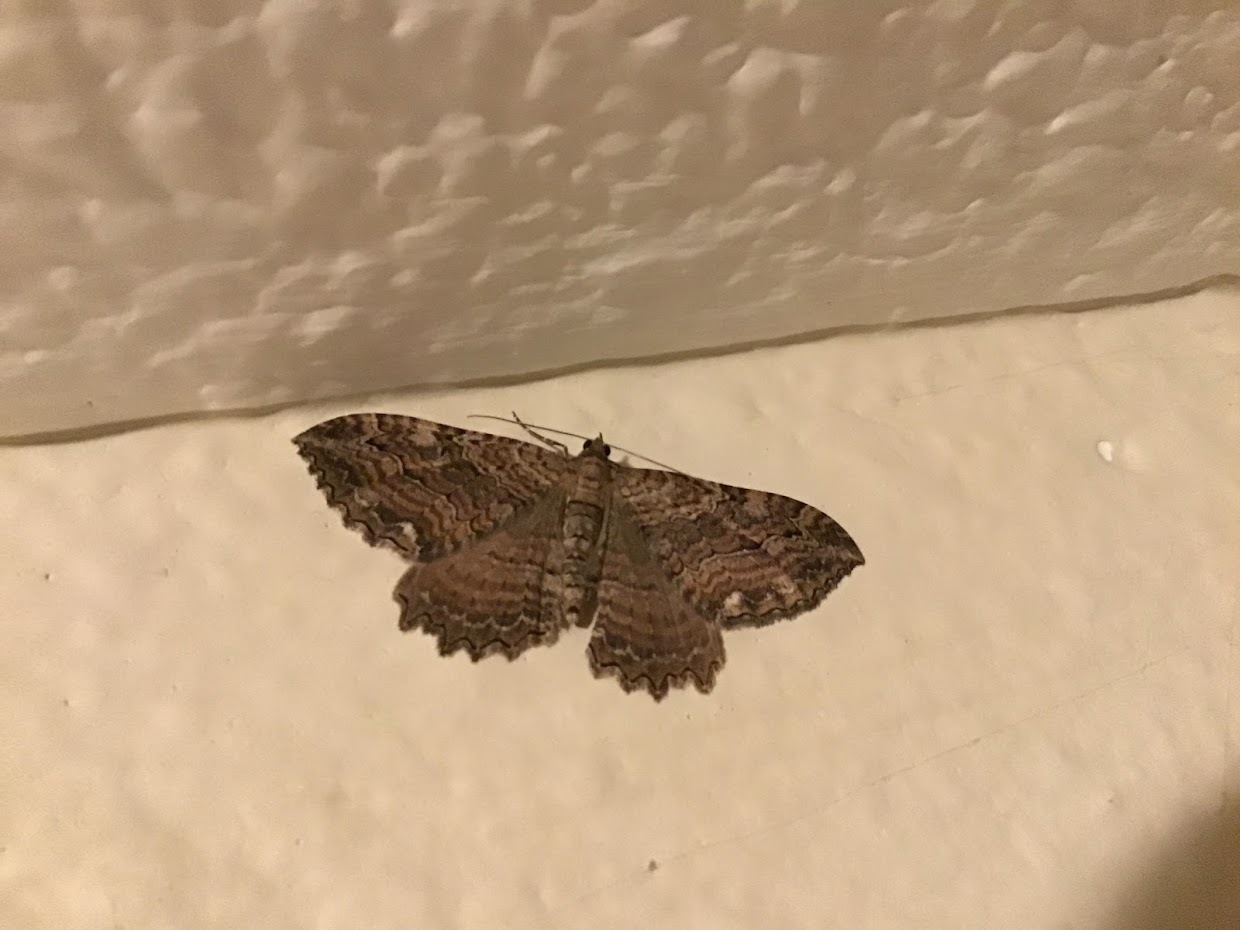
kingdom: Animalia
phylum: Arthropoda
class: Insecta
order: Lepidoptera
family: Geometridae
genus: Rheumaptera
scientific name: Rheumaptera
